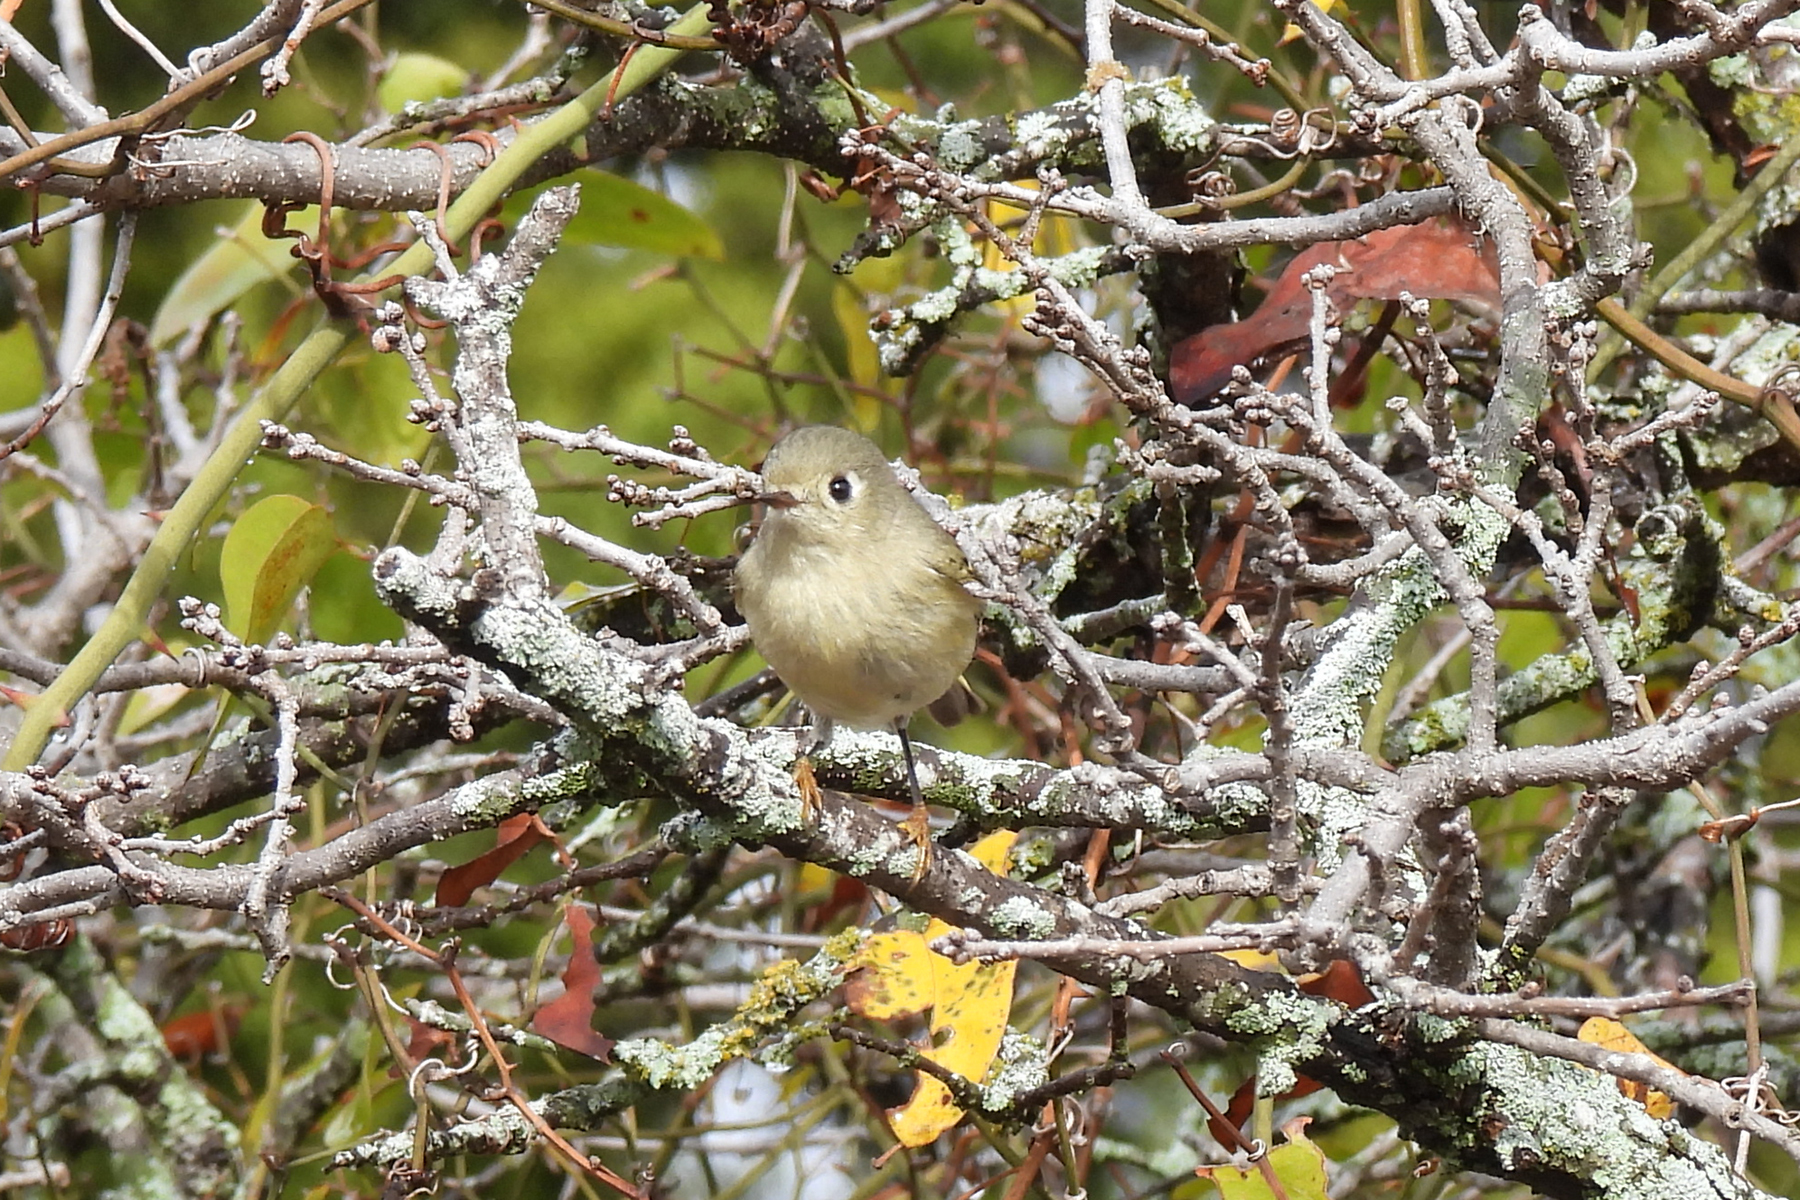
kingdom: Animalia
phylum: Chordata
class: Aves
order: Passeriformes
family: Regulidae
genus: Regulus
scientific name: Regulus calendula
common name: Ruby-crowned kinglet
